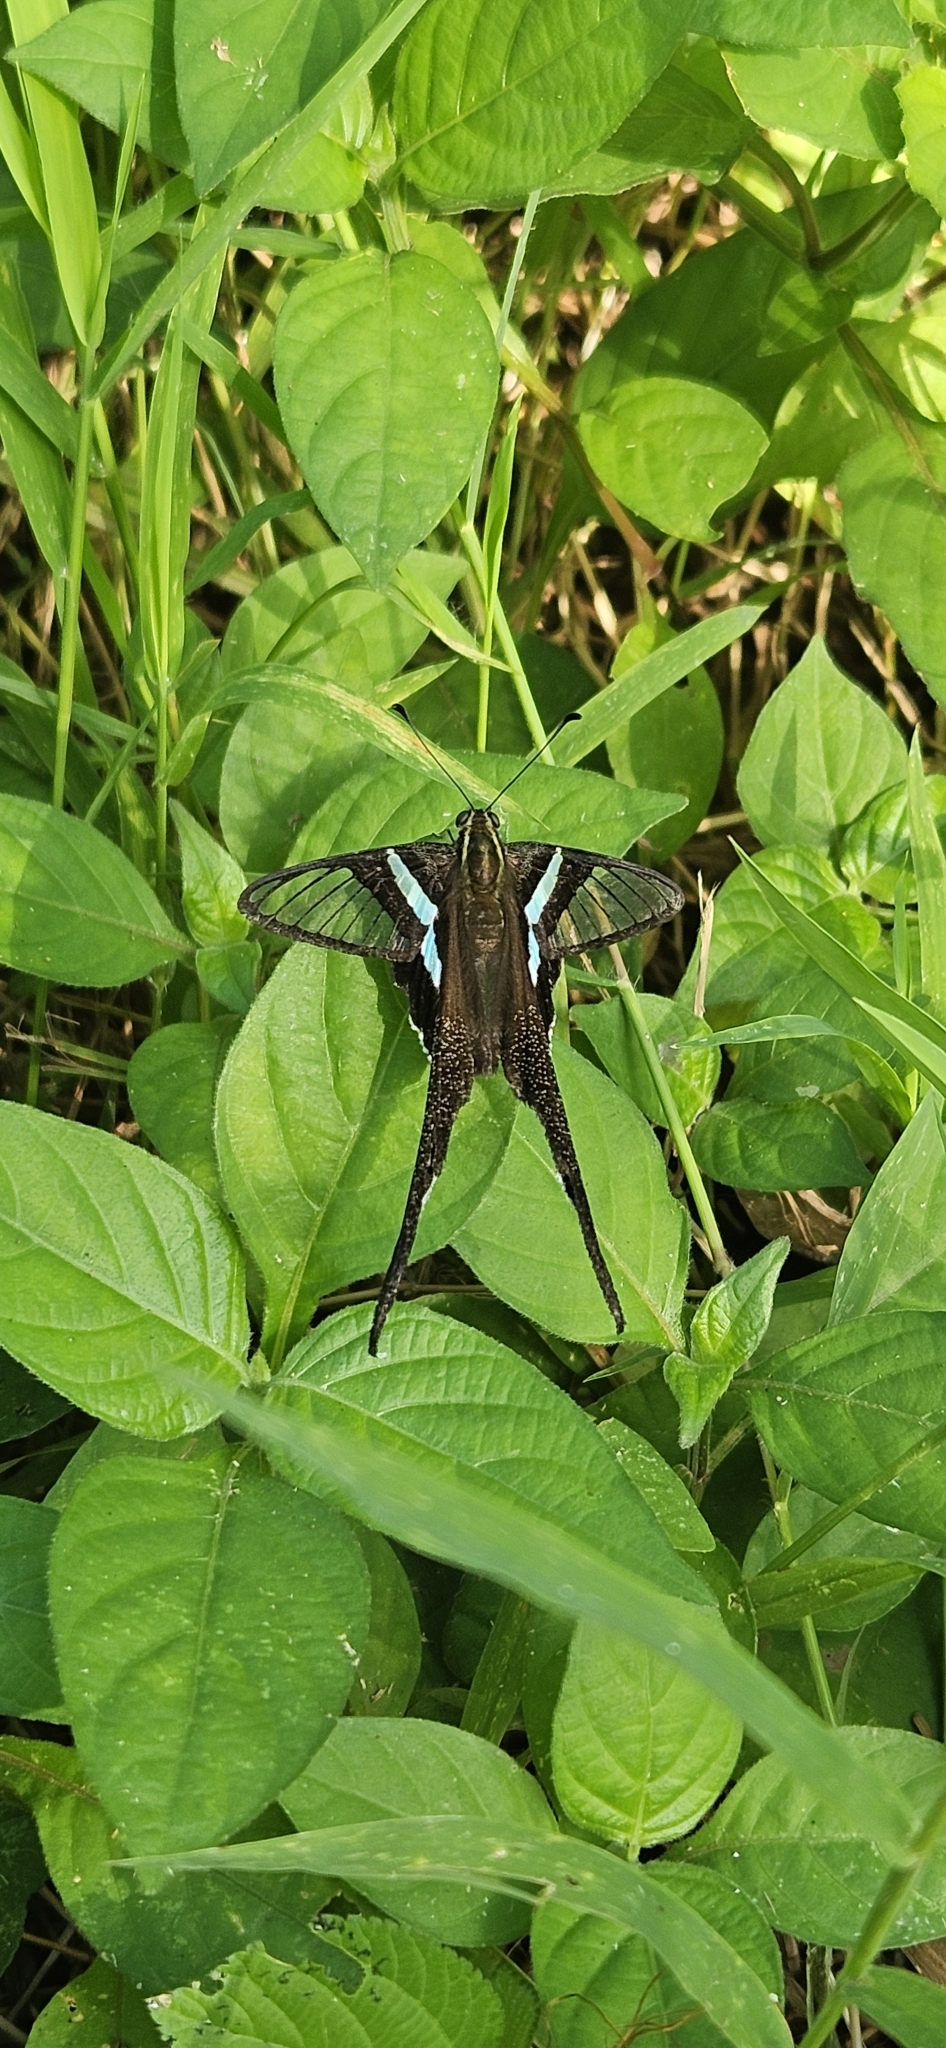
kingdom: Animalia
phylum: Arthropoda
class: Insecta
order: Lepidoptera
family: Papilionidae
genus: Lamproptera
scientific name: Lamproptera meges
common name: Green dragontail
